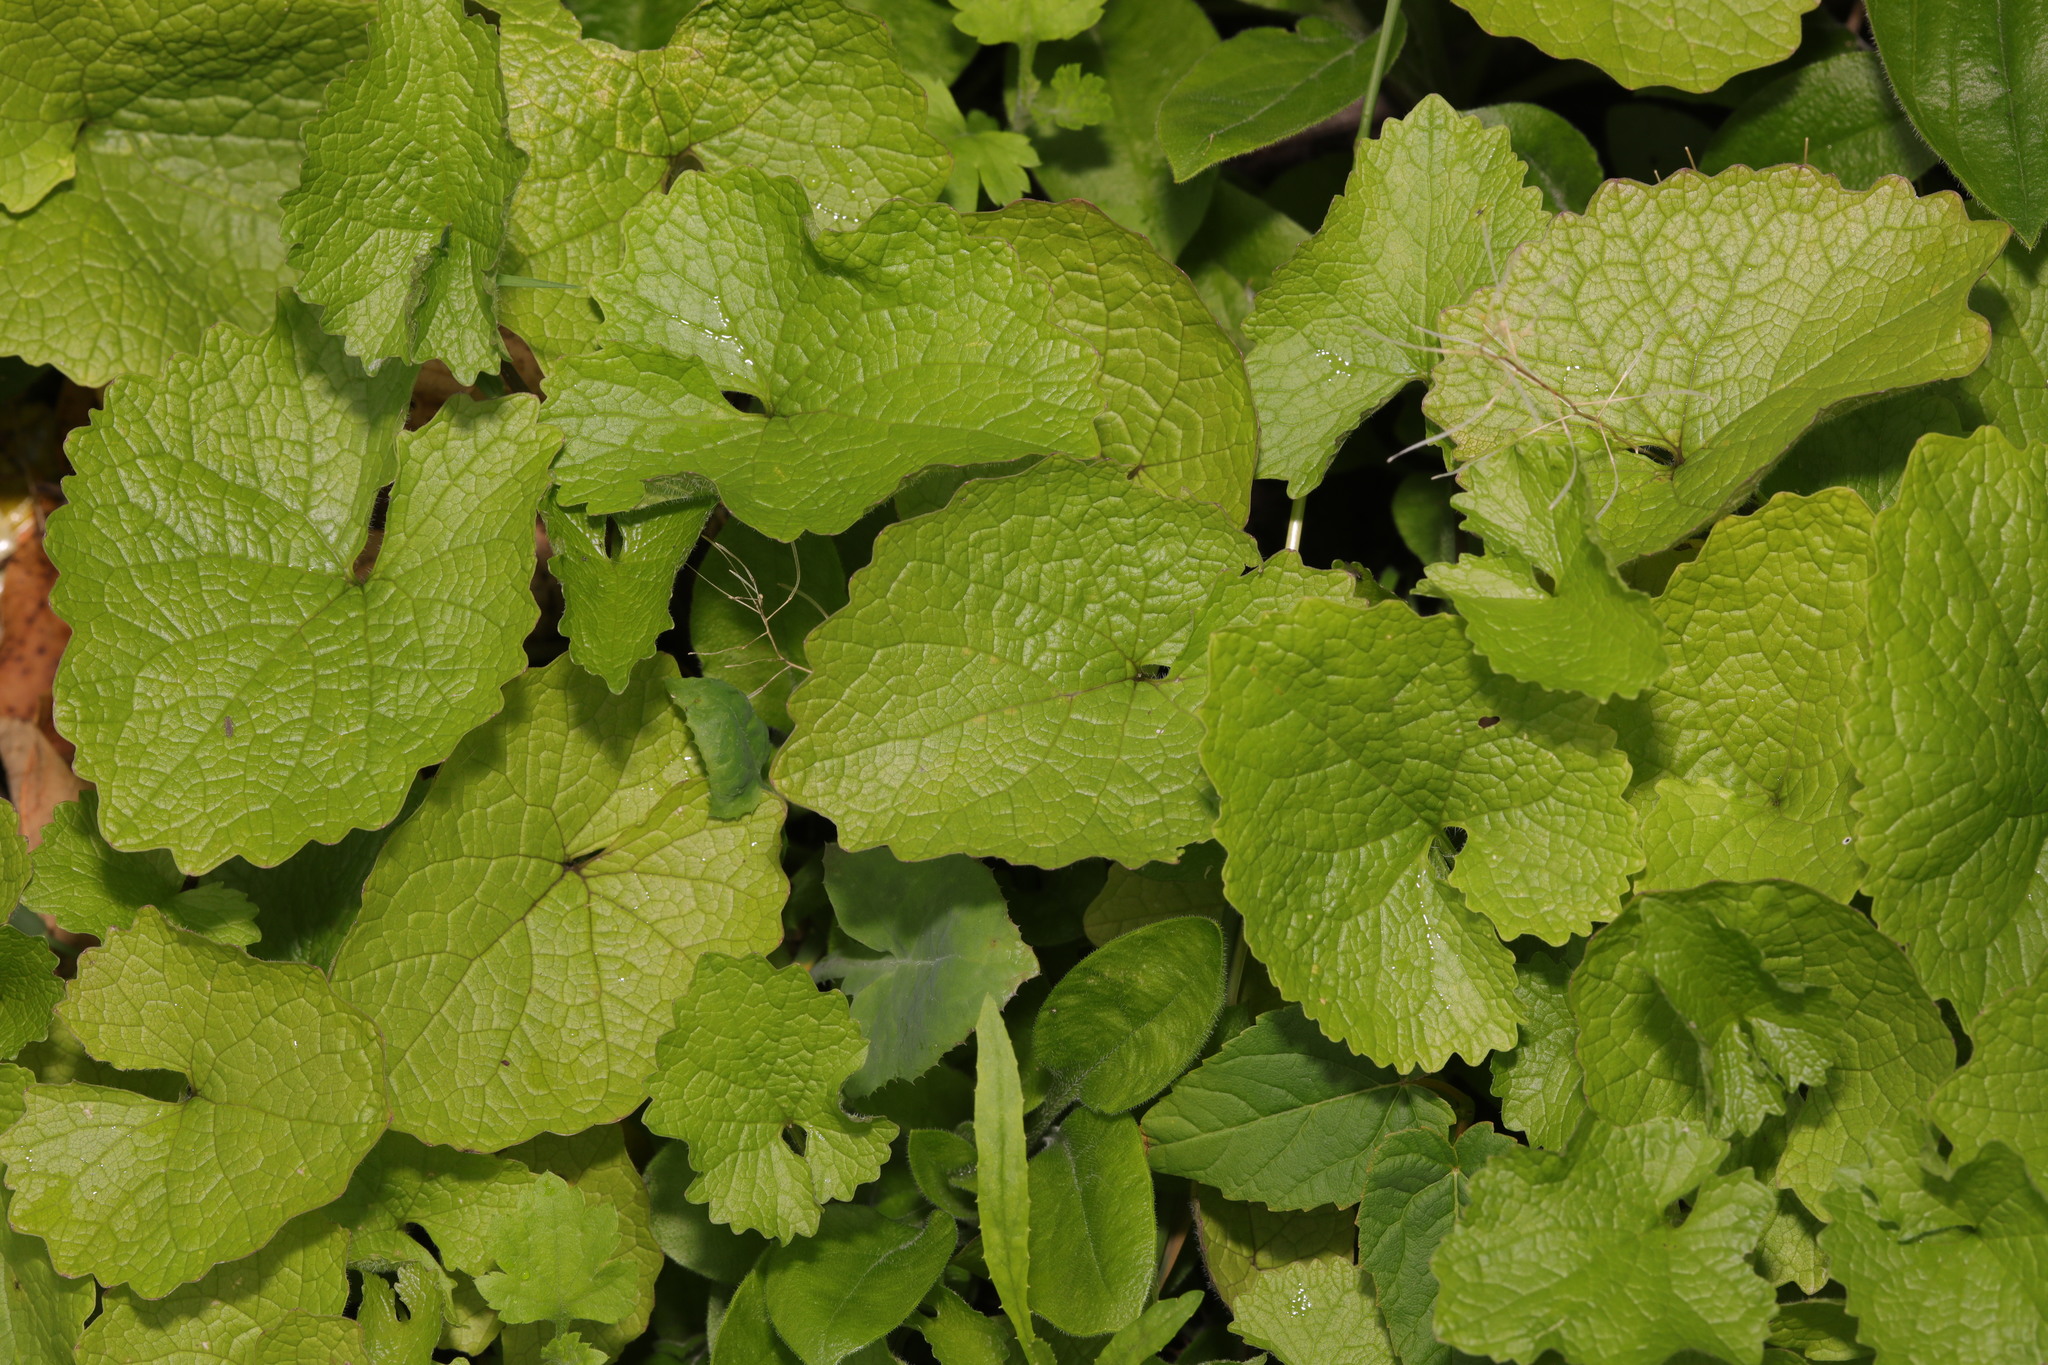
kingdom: Plantae
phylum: Tracheophyta
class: Magnoliopsida
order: Brassicales
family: Brassicaceae
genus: Alliaria
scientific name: Alliaria petiolata
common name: Garlic mustard
